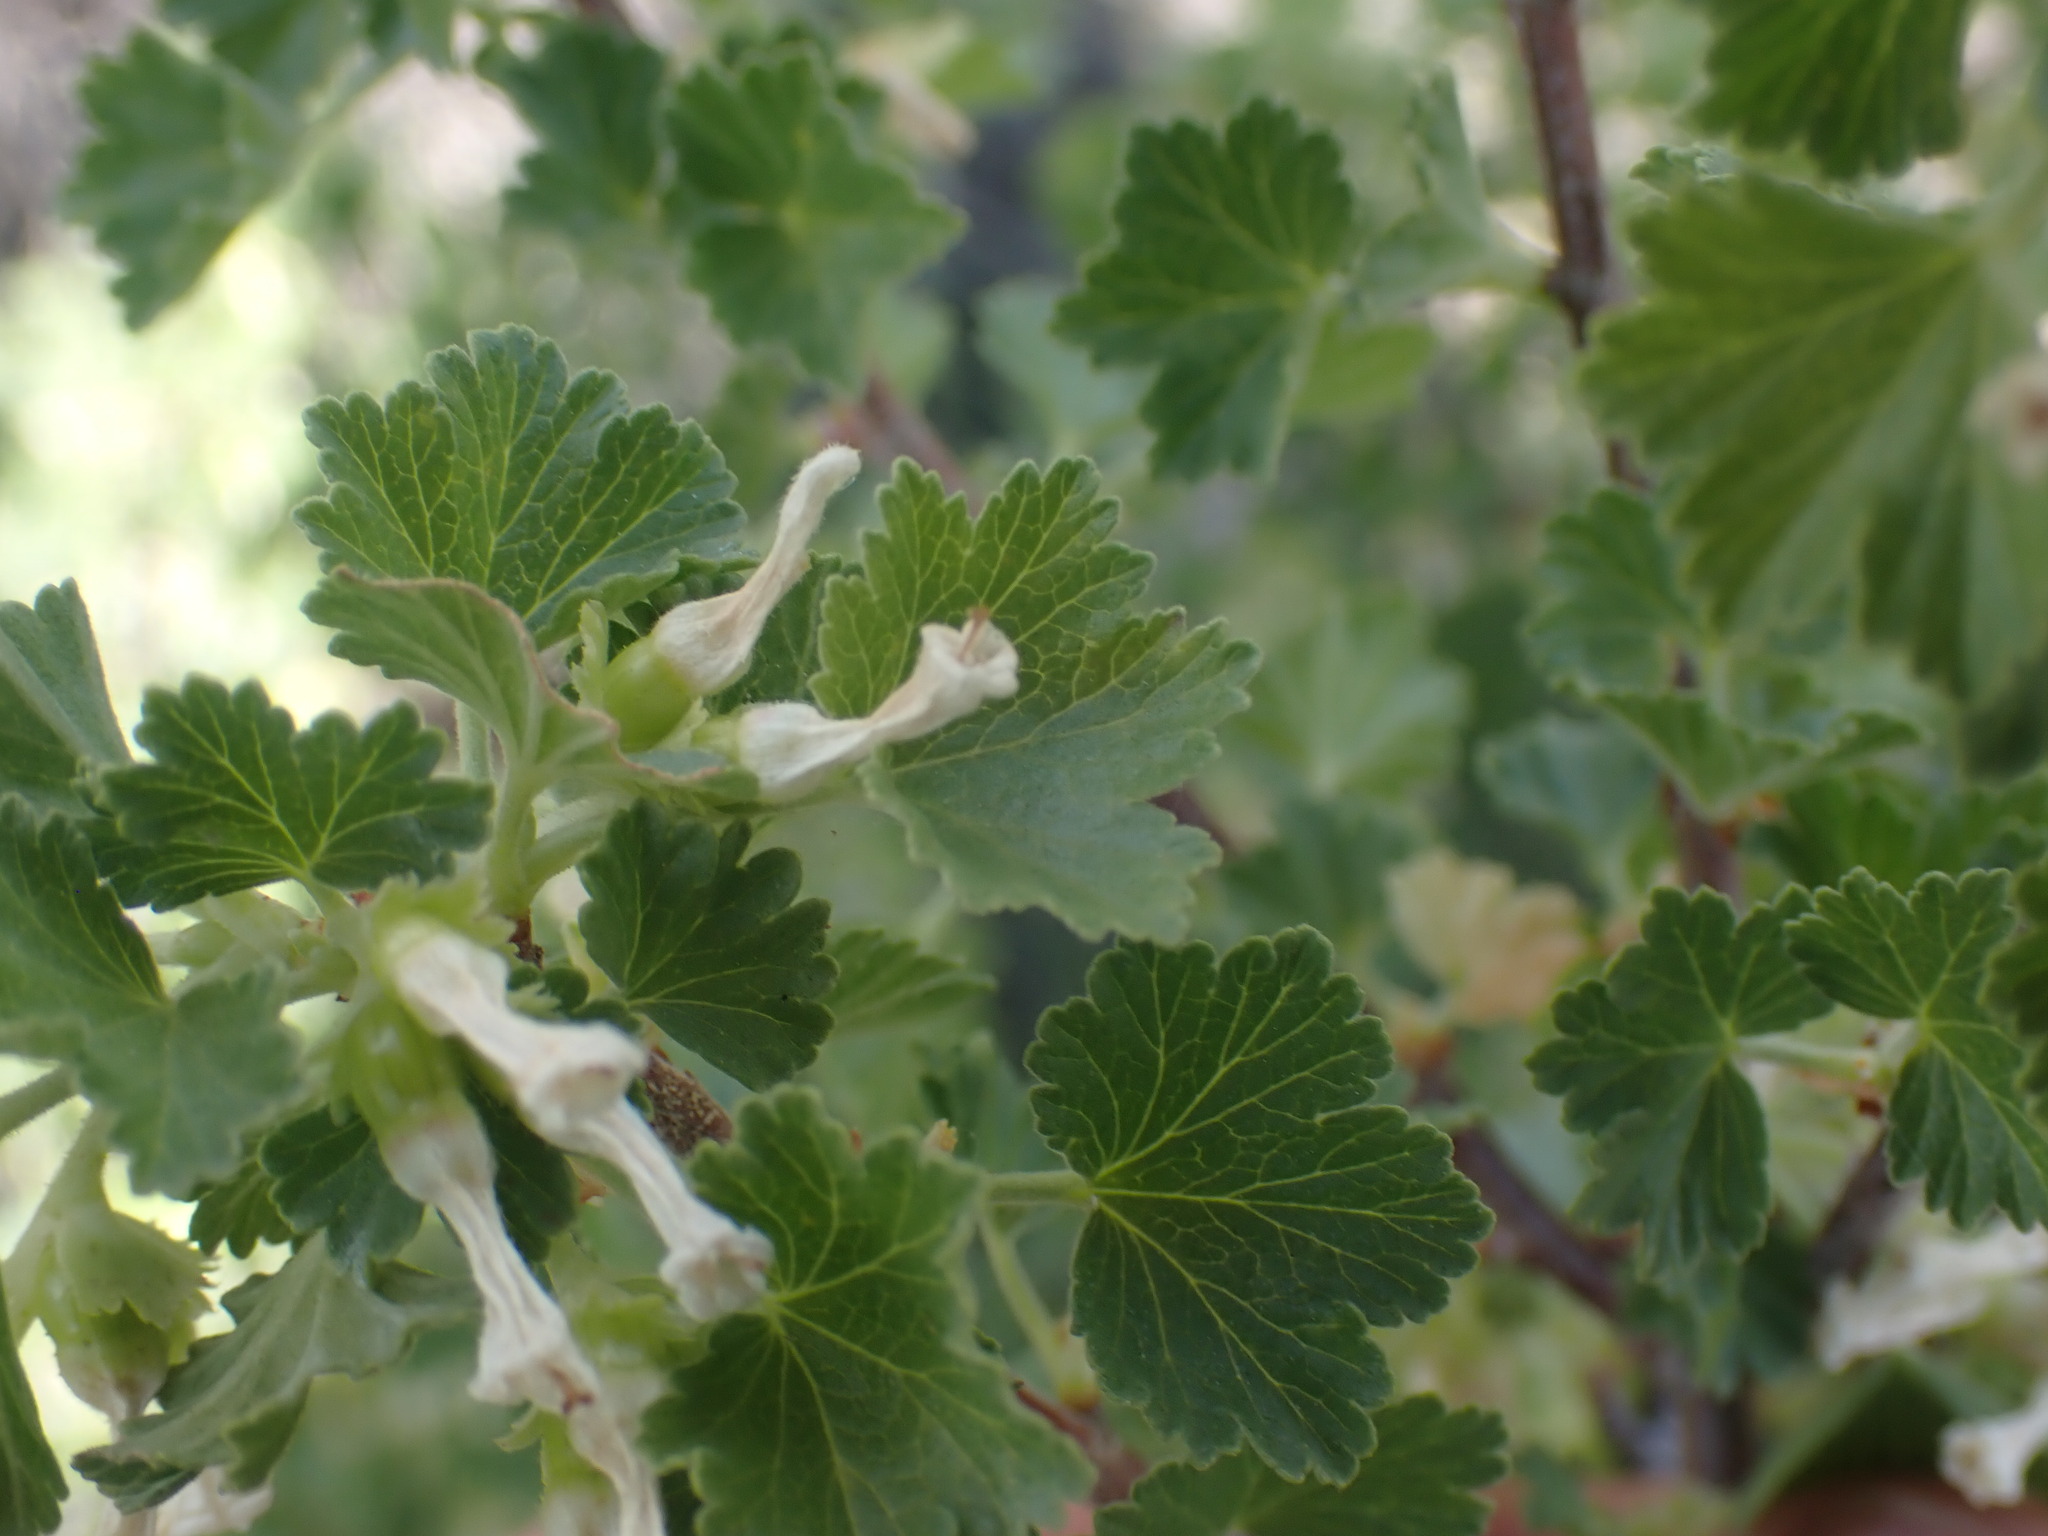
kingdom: Plantae
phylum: Tracheophyta
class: Magnoliopsida
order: Saxifragales
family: Grossulariaceae
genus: Ribes
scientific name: Ribes cereum
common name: Wax currant
